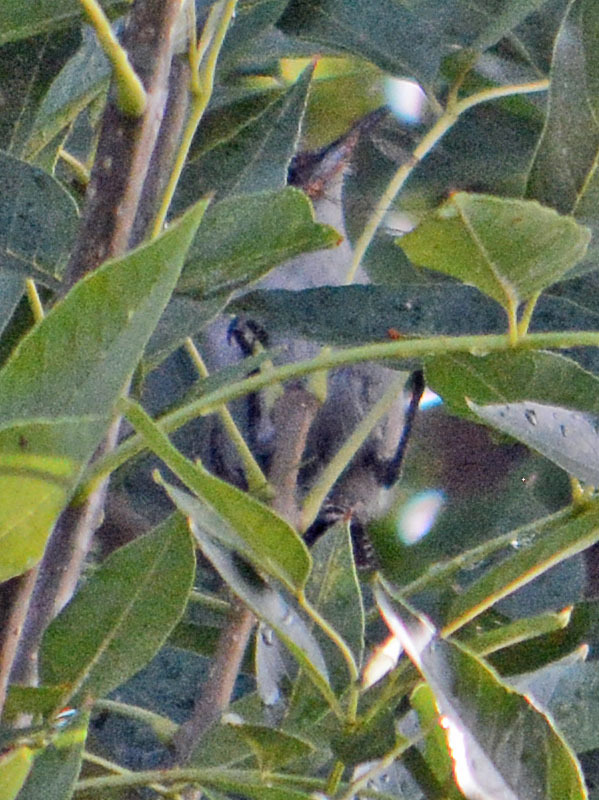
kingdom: Animalia
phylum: Chordata
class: Aves
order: Passeriformes
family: Troglodytidae
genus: Thryomanes
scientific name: Thryomanes bewickii
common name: Bewick's wren
